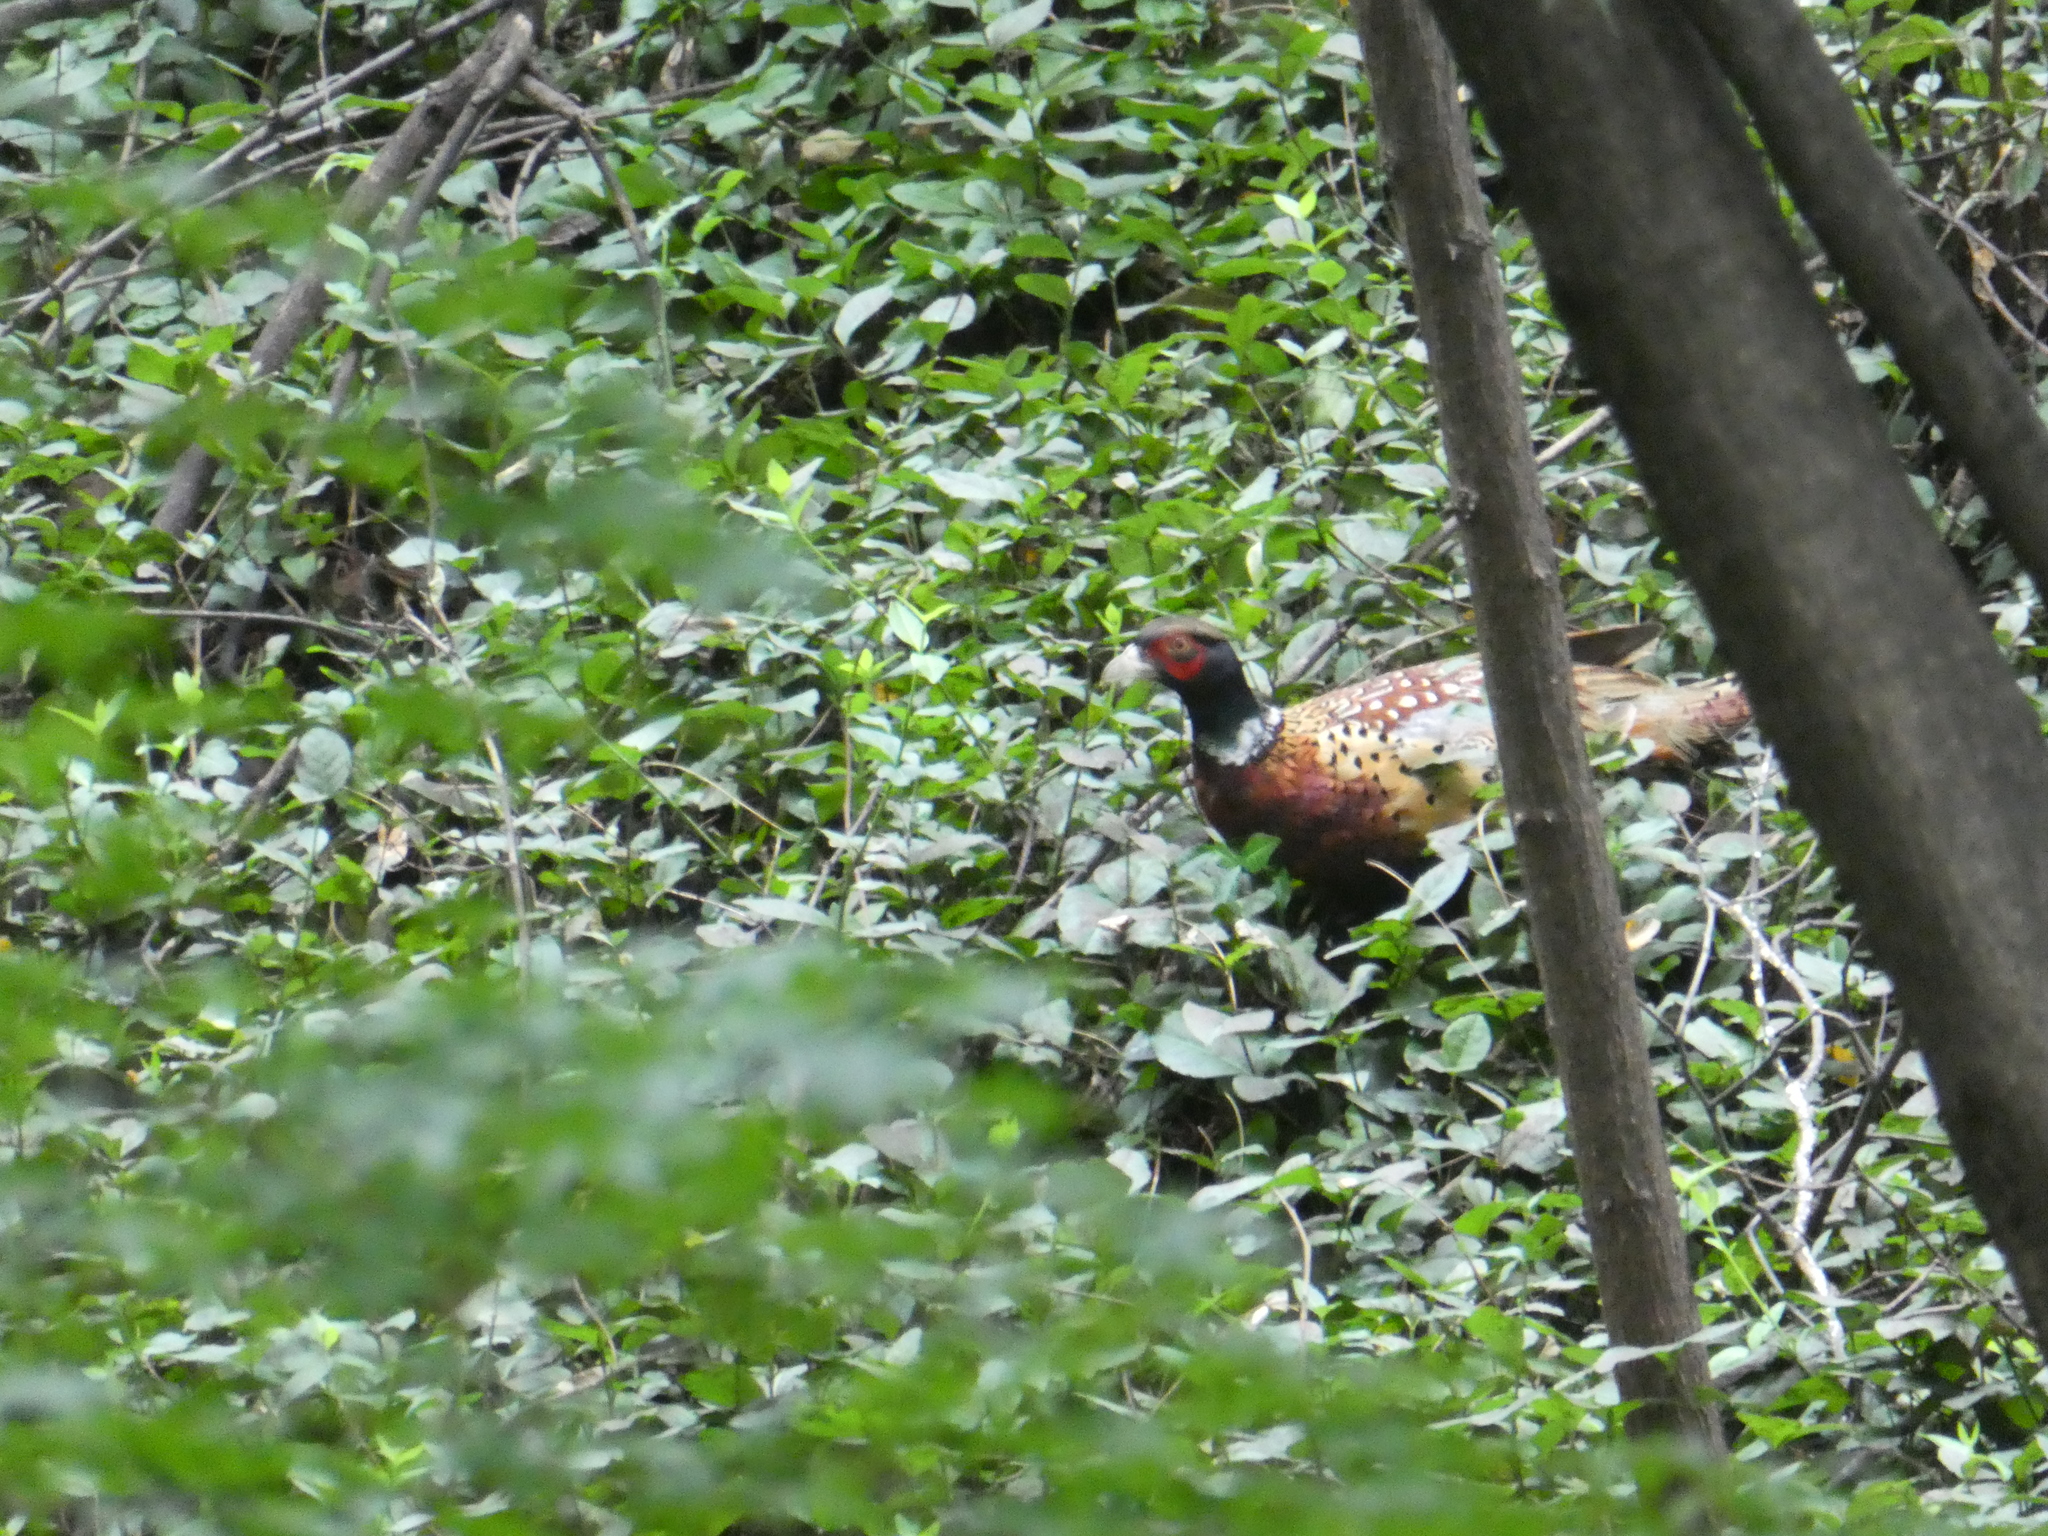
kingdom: Animalia
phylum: Chordata
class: Aves
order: Galliformes
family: Phasianidae
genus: Phasianus
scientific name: Phasianus colchicus
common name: Common pheasant
